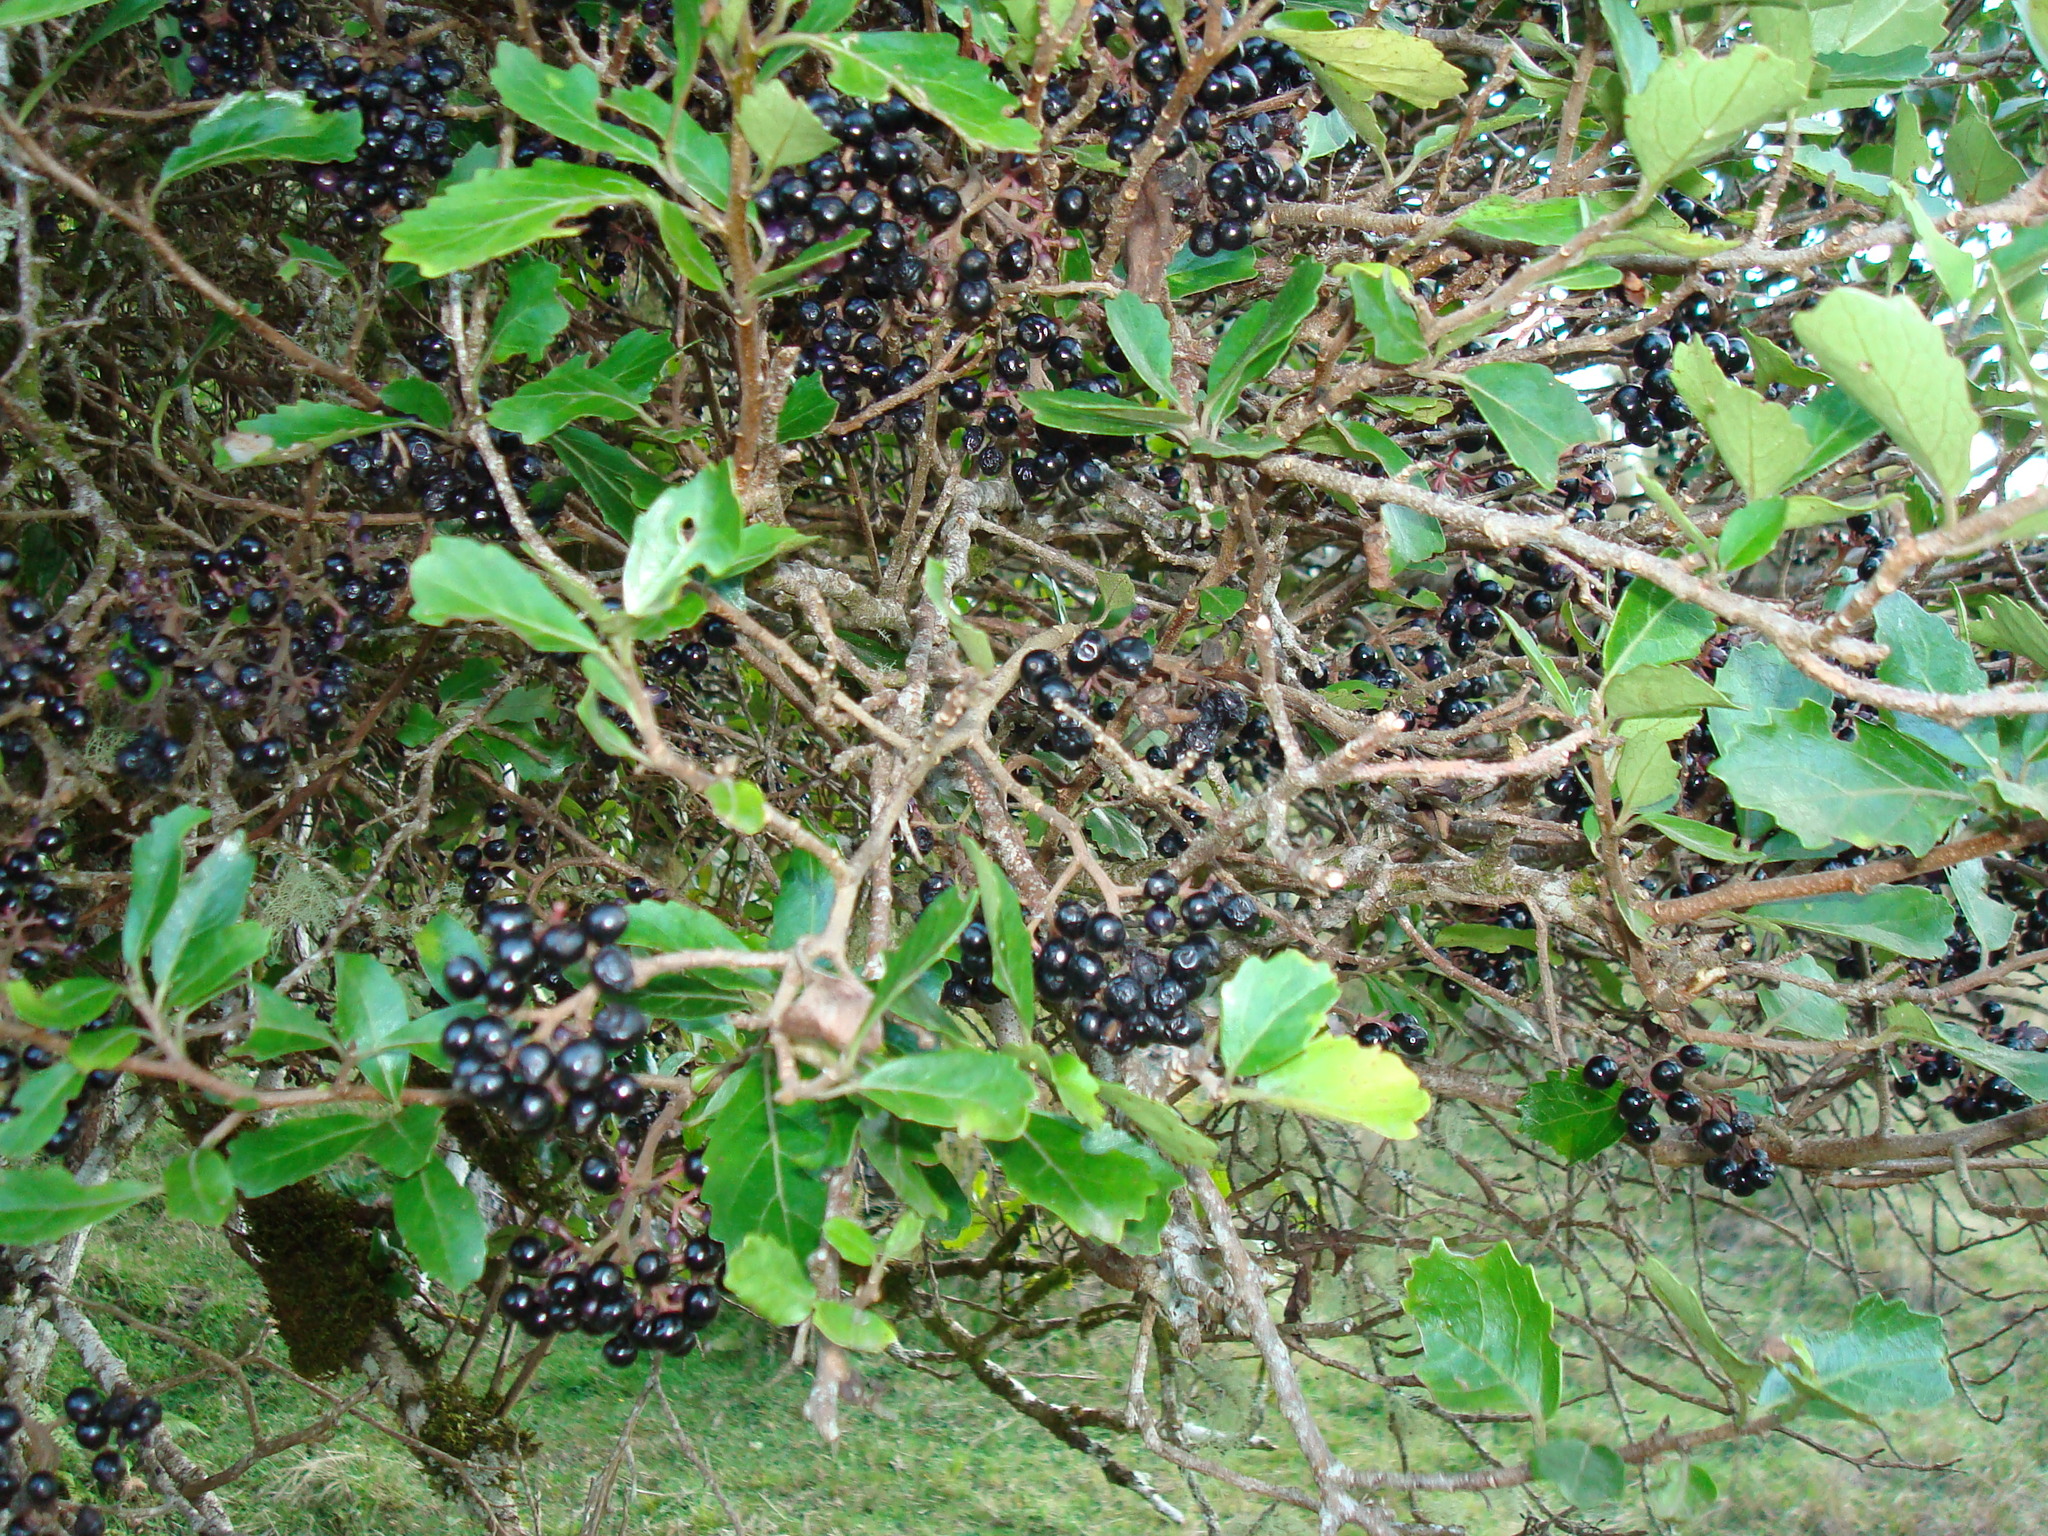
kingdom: Plantae
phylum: Tracheophyta
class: Magnoliopsida
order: Apiales
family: Pennantiaceae
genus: Pennantia
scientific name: Pennantia corymbosa
